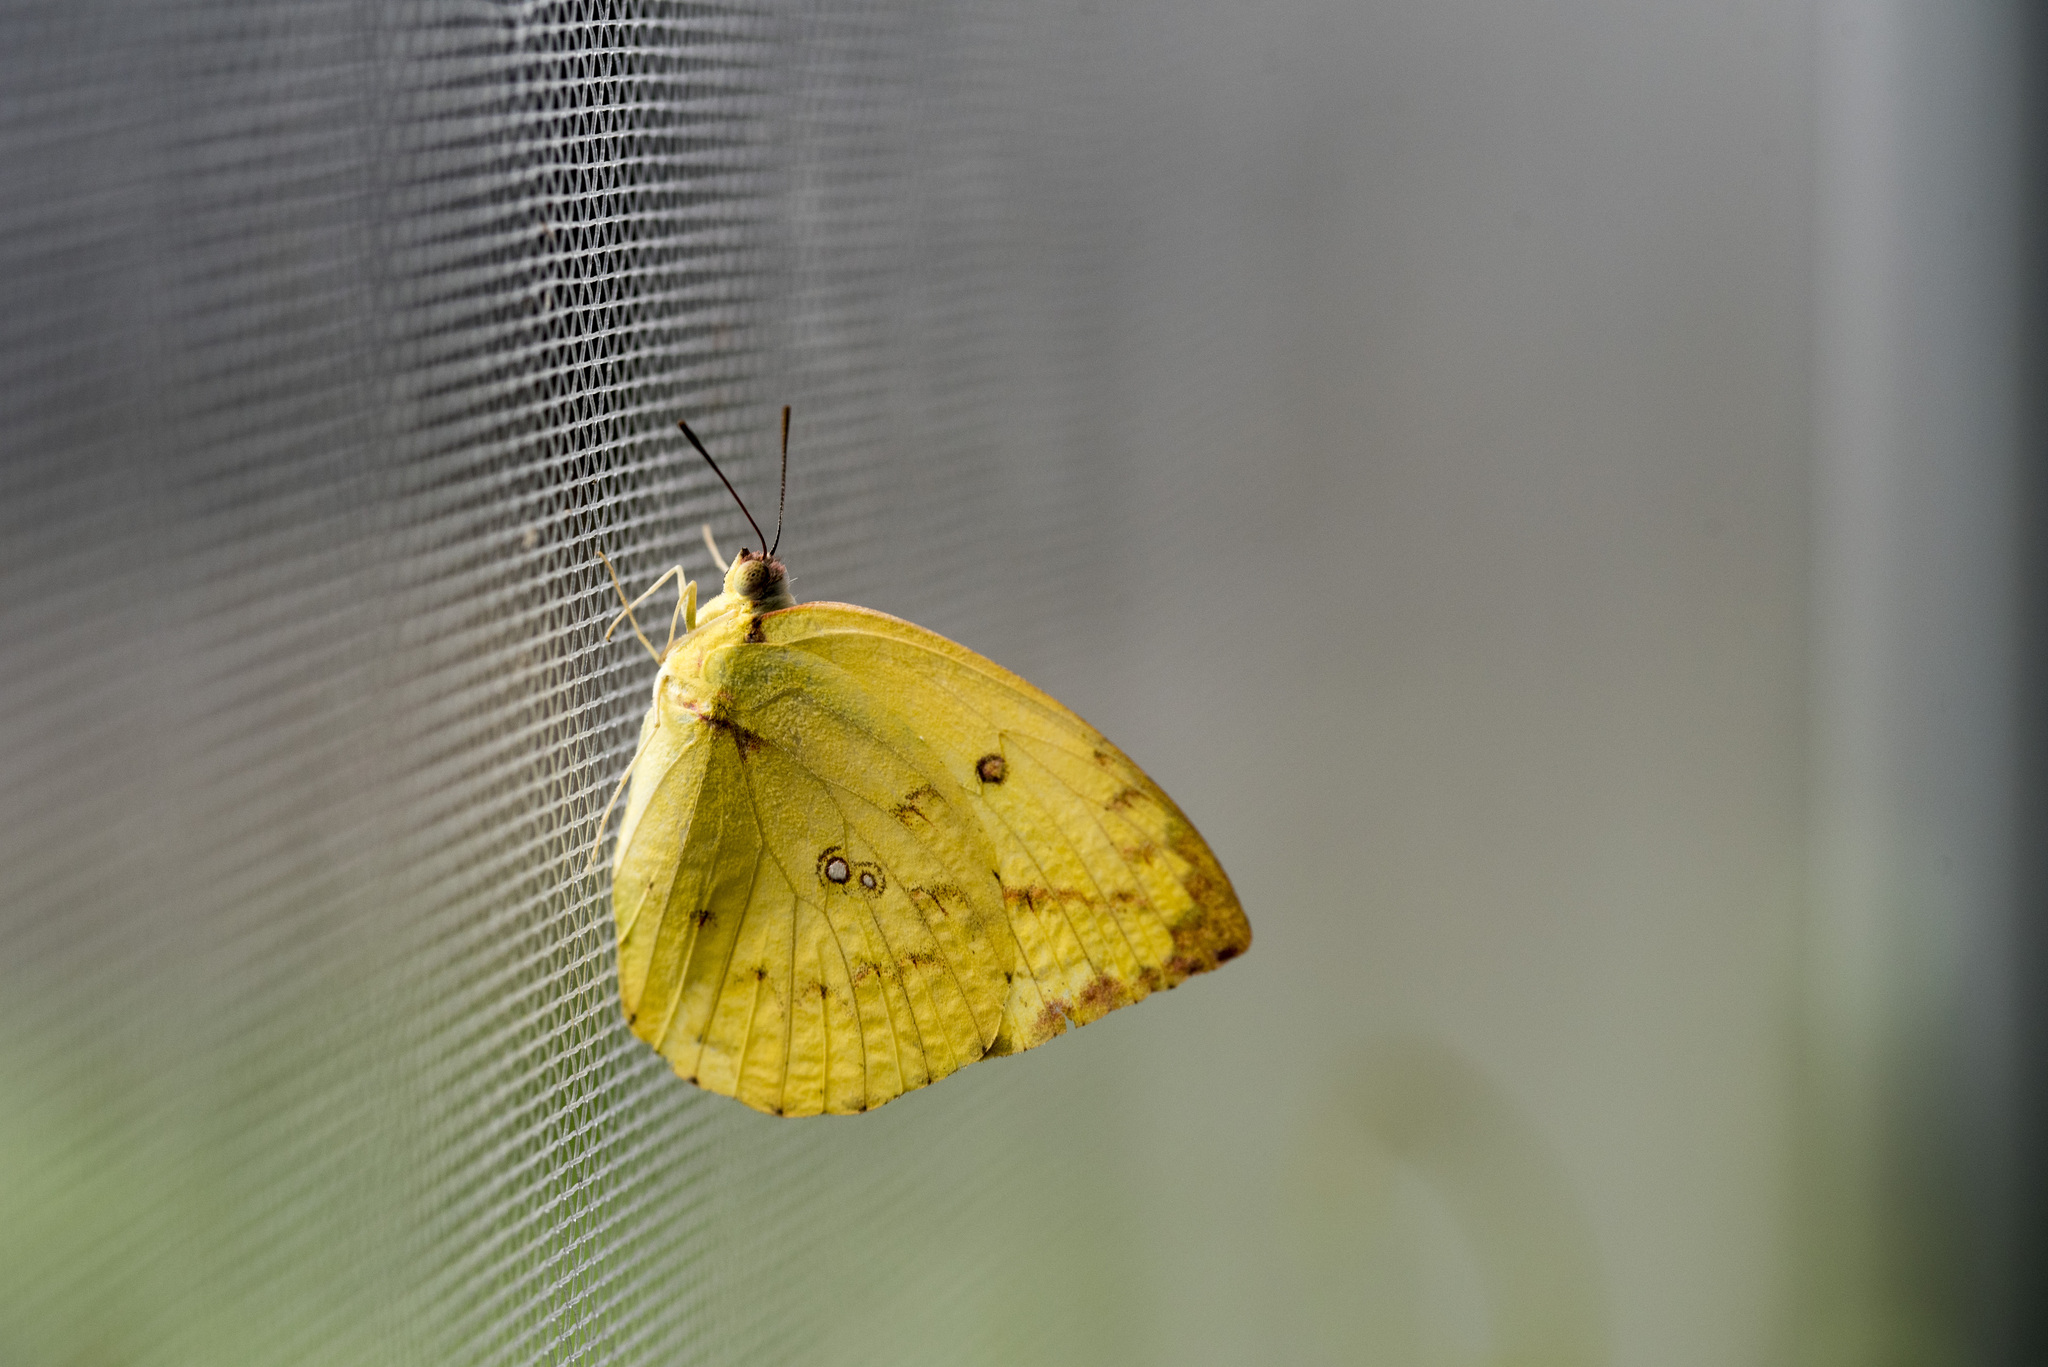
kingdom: Animalia
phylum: Arthropoda
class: Insecta
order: Lepidoptera
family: Pieridae
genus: Catopsilia
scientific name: Catopsilia pomona
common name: Common emigrant
